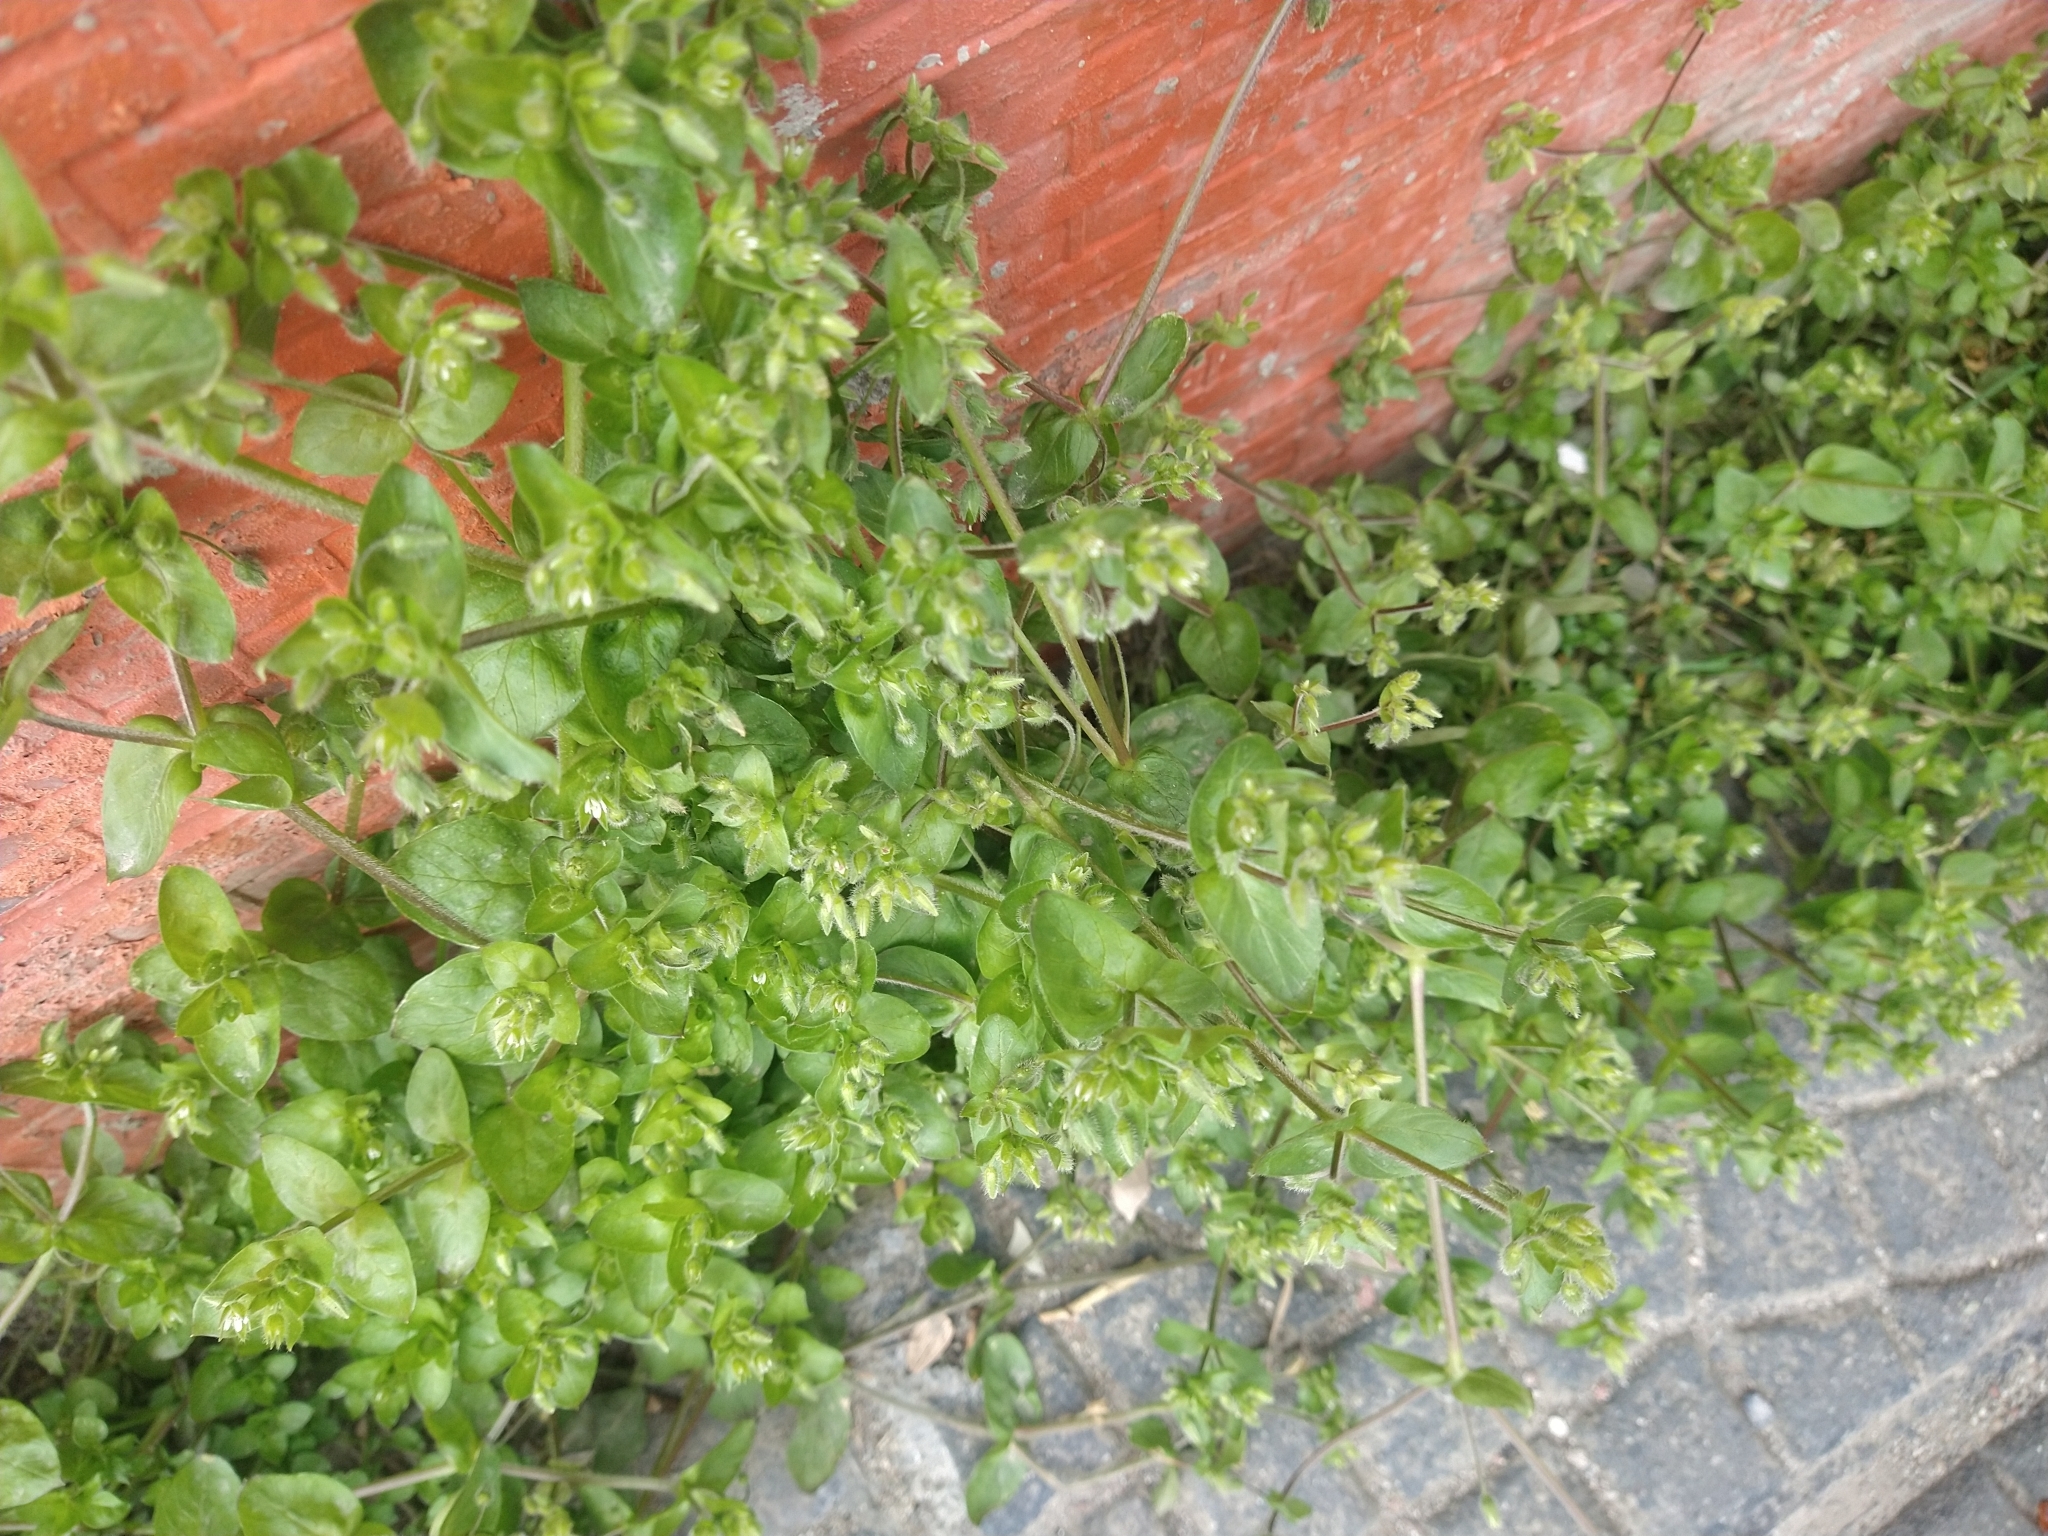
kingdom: Plantae
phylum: Tracheophyta
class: Magnoliopsida
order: Caryophyllales
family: Caryophyllaceae
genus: Stellaria
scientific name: Stellaria media
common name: Common chickweed
